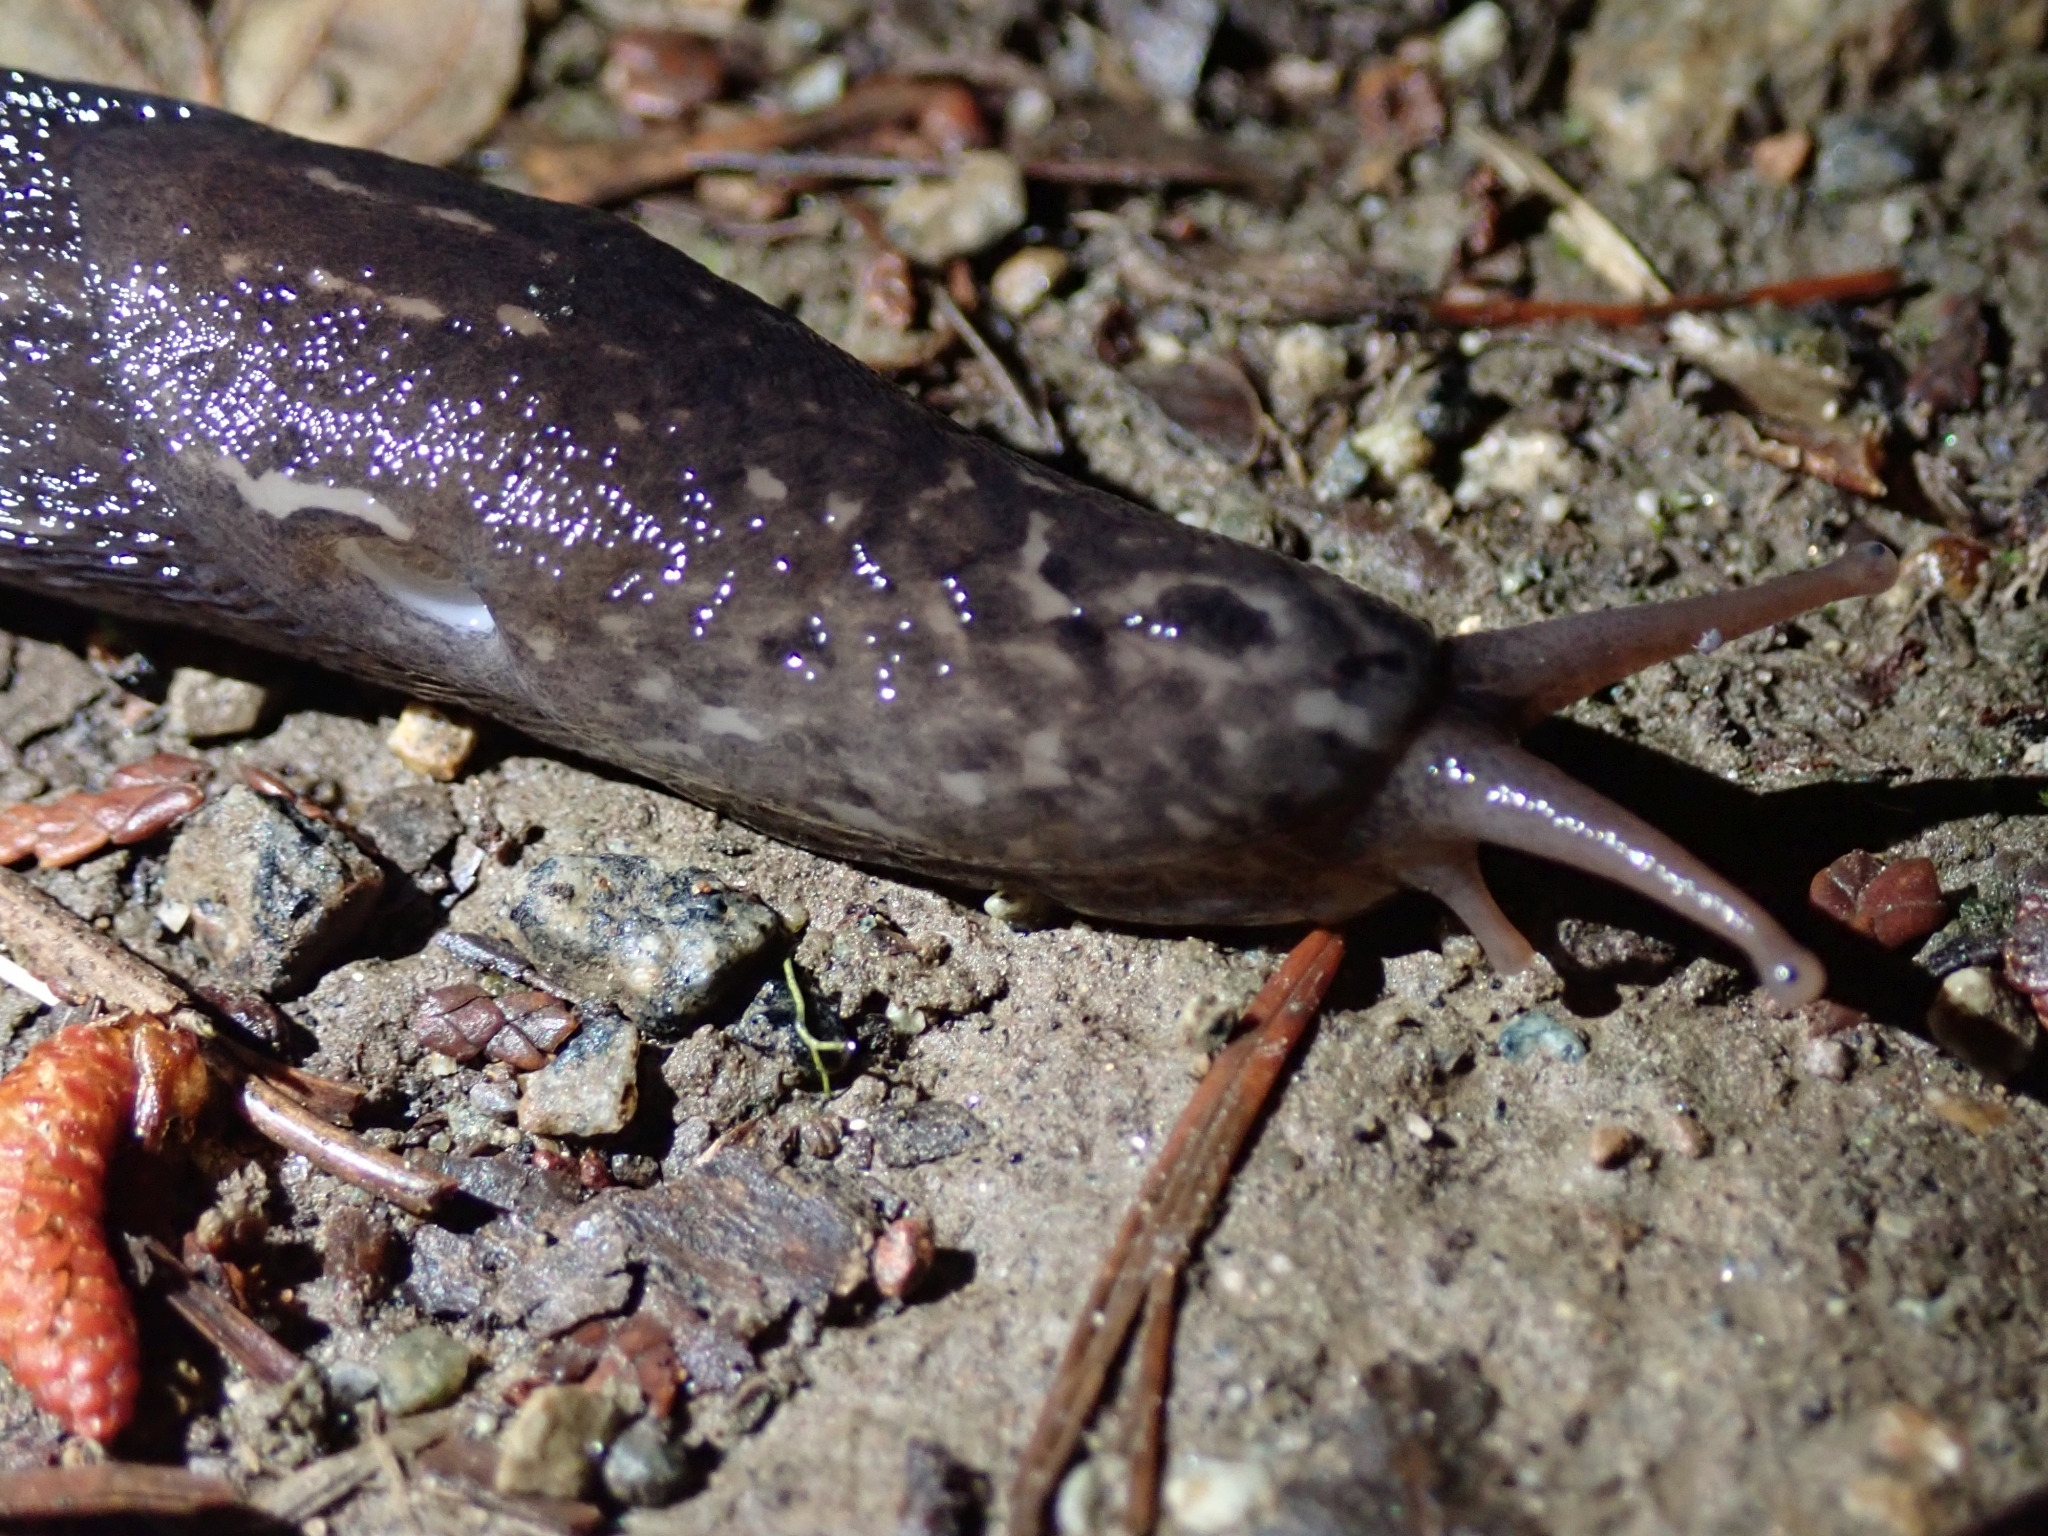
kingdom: Animalia
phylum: Mollusca
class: Gastropoda
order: Stylommatophora
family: Limacidae
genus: Limax
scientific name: Limax maximus
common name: Great grey slug
